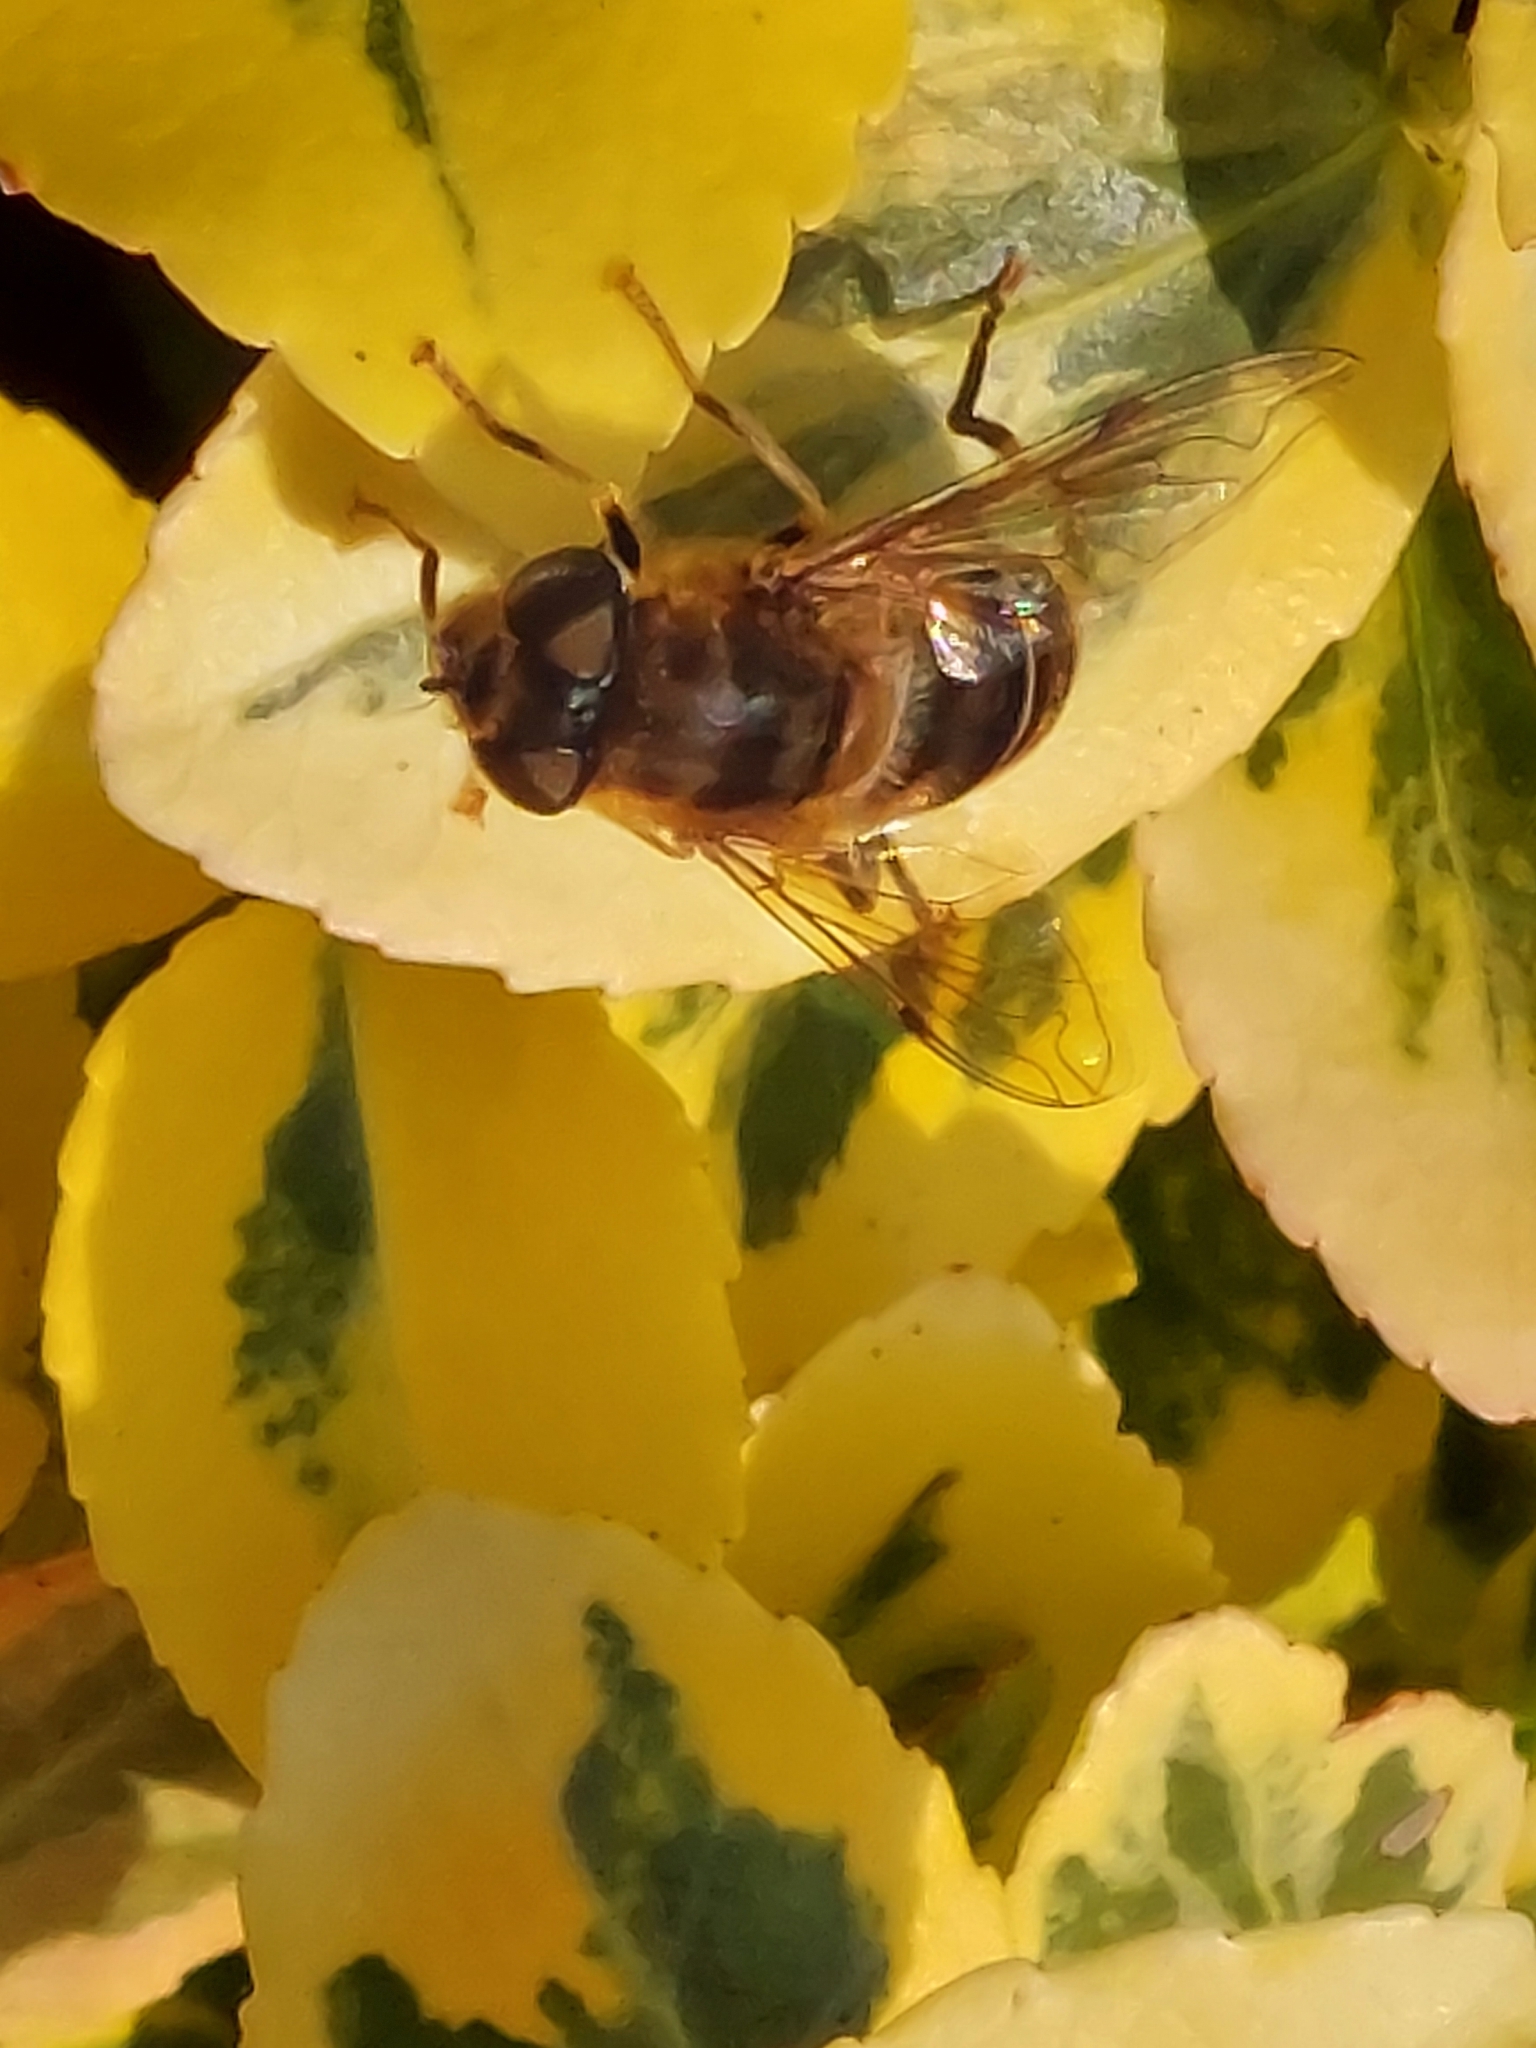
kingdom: Animalia
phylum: Arthropoda
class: Insecta
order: Diptera
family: Syrphidae
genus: Eristalis
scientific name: Eristalis pertinax
